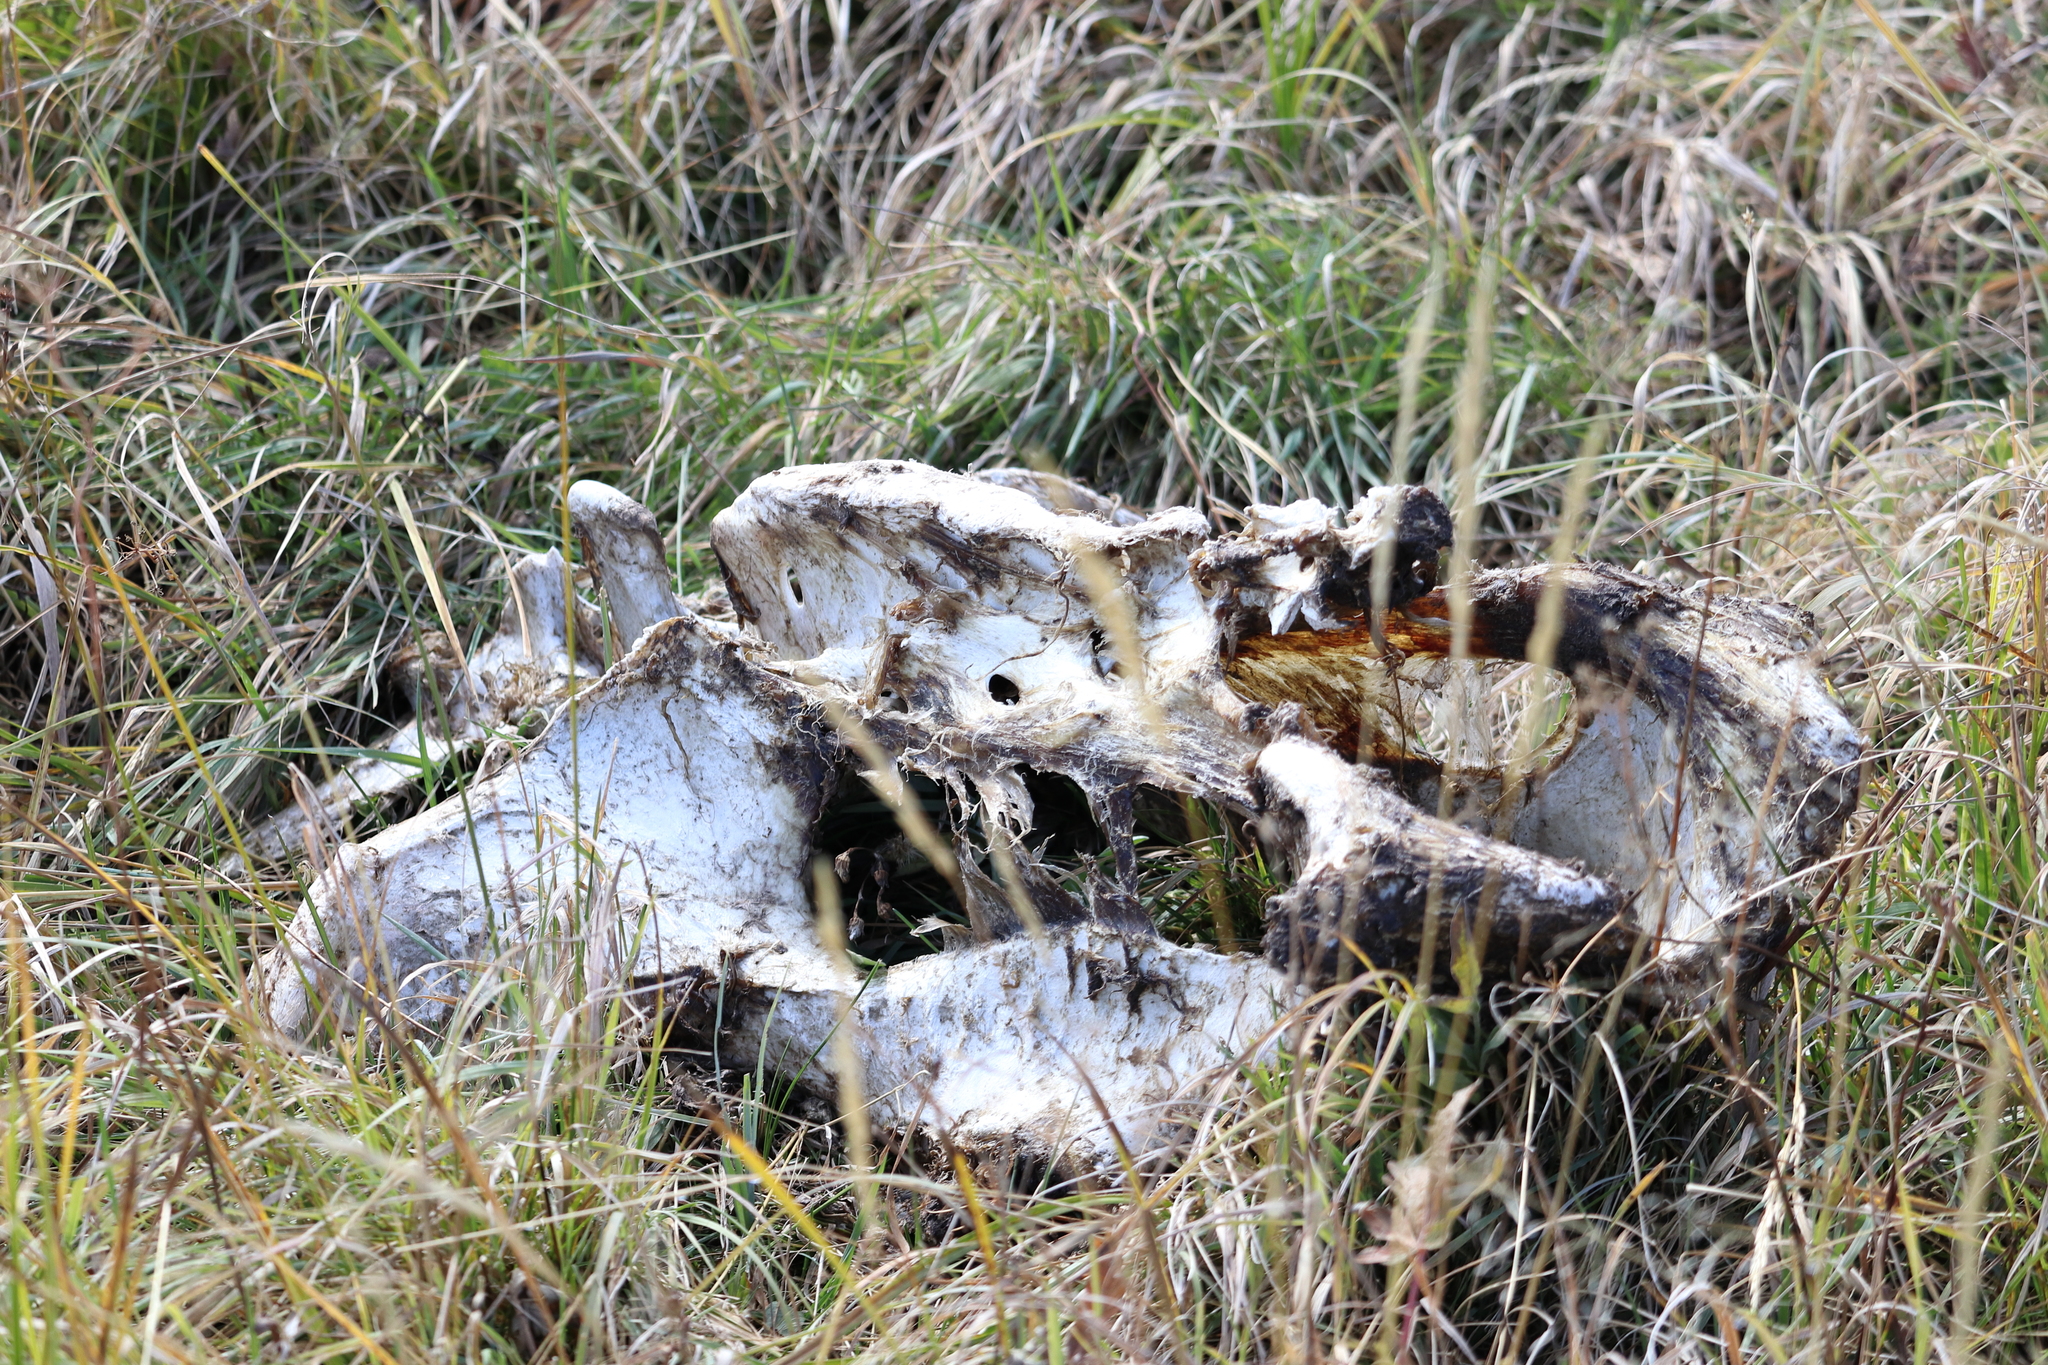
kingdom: Animalia
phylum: Chordata
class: Mammalia
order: Artiodactyla
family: Bovidae
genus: Bison
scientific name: Bison bison
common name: American bison
